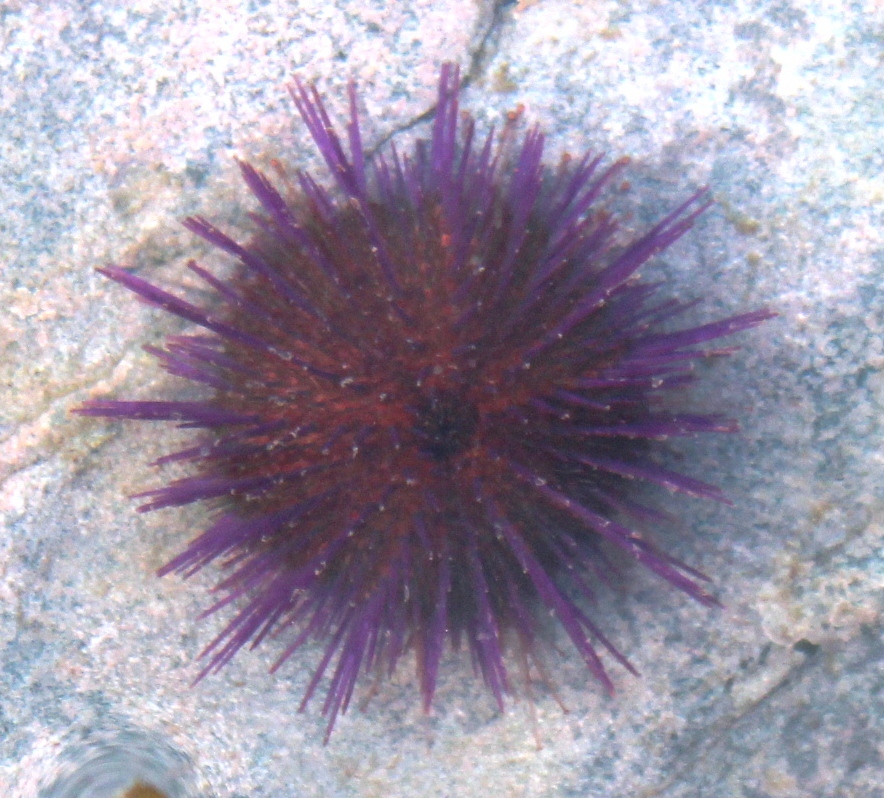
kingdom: Animalia
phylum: Echinodermata
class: Echinoidea
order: Camarodonta
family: Parechinidae
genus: Parechinus
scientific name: Parechinus angulosus
